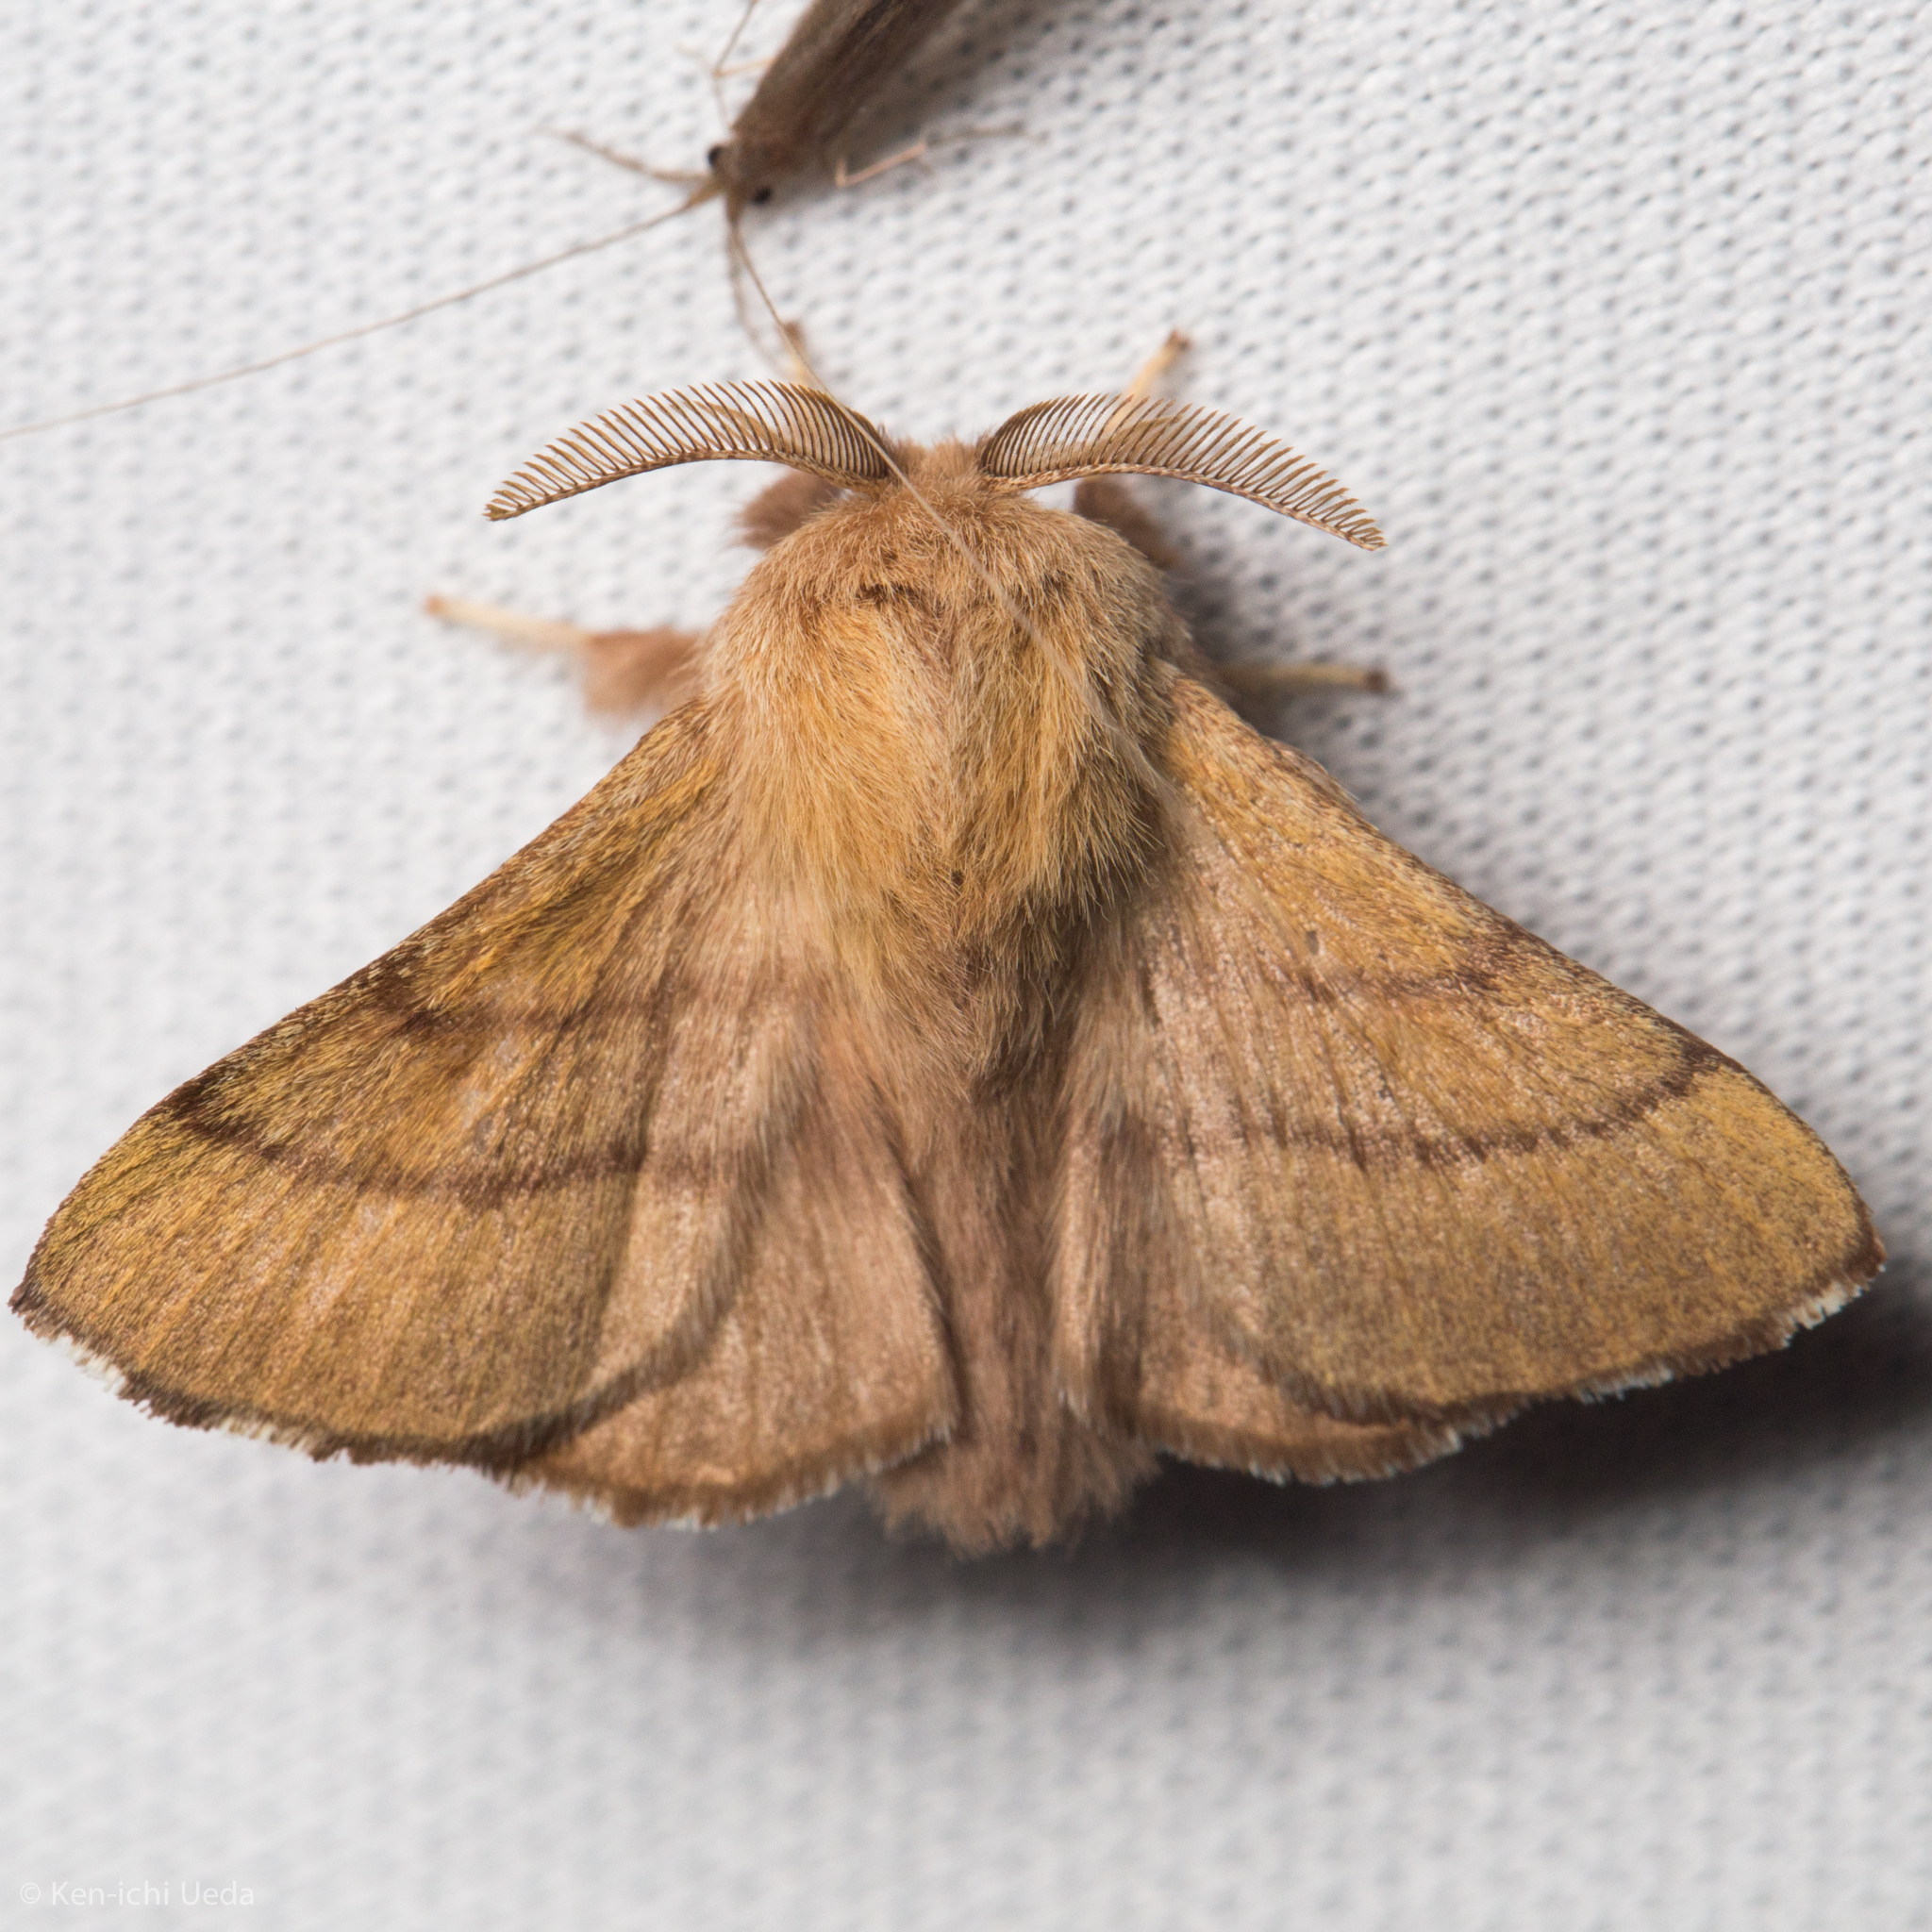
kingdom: Animalia
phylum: Arthropoda
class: Insecta
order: Lepidoptera
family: Lasiocampidae
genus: Malacosoma
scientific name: Malacosoma disstria
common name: Forest tent caterpillar
